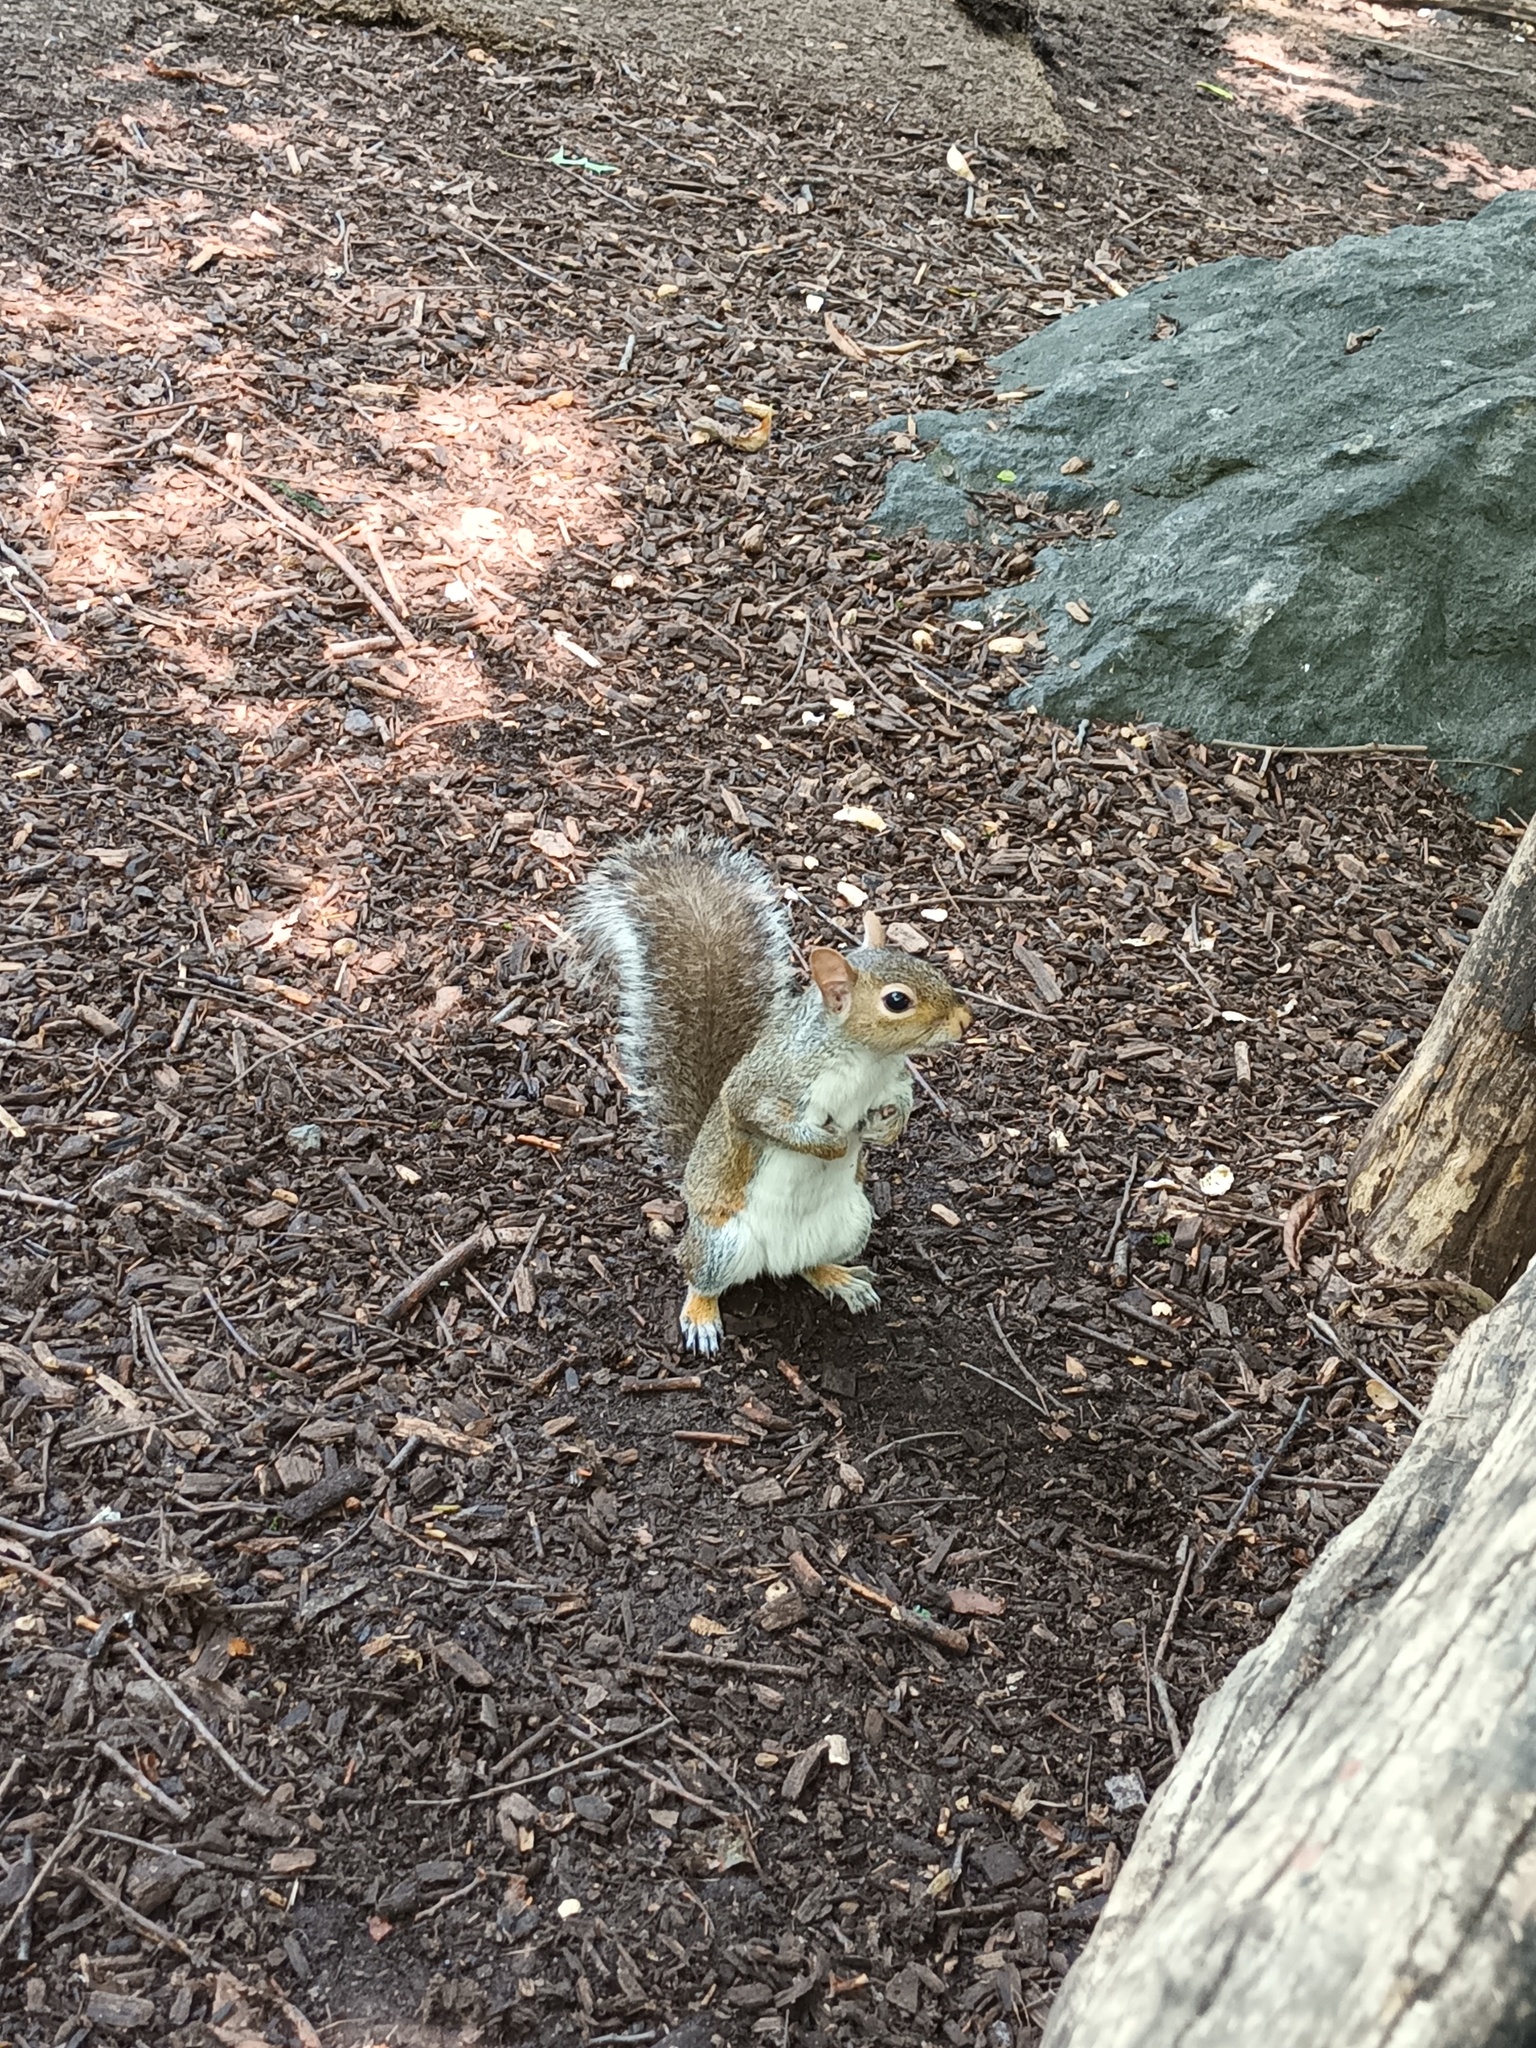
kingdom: Animalia
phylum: Chordata
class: Mammalia
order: Rodentia
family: Sciuridae
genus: Sciurus
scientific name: Sciurus carolinensis
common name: Eastern gray squirrel
